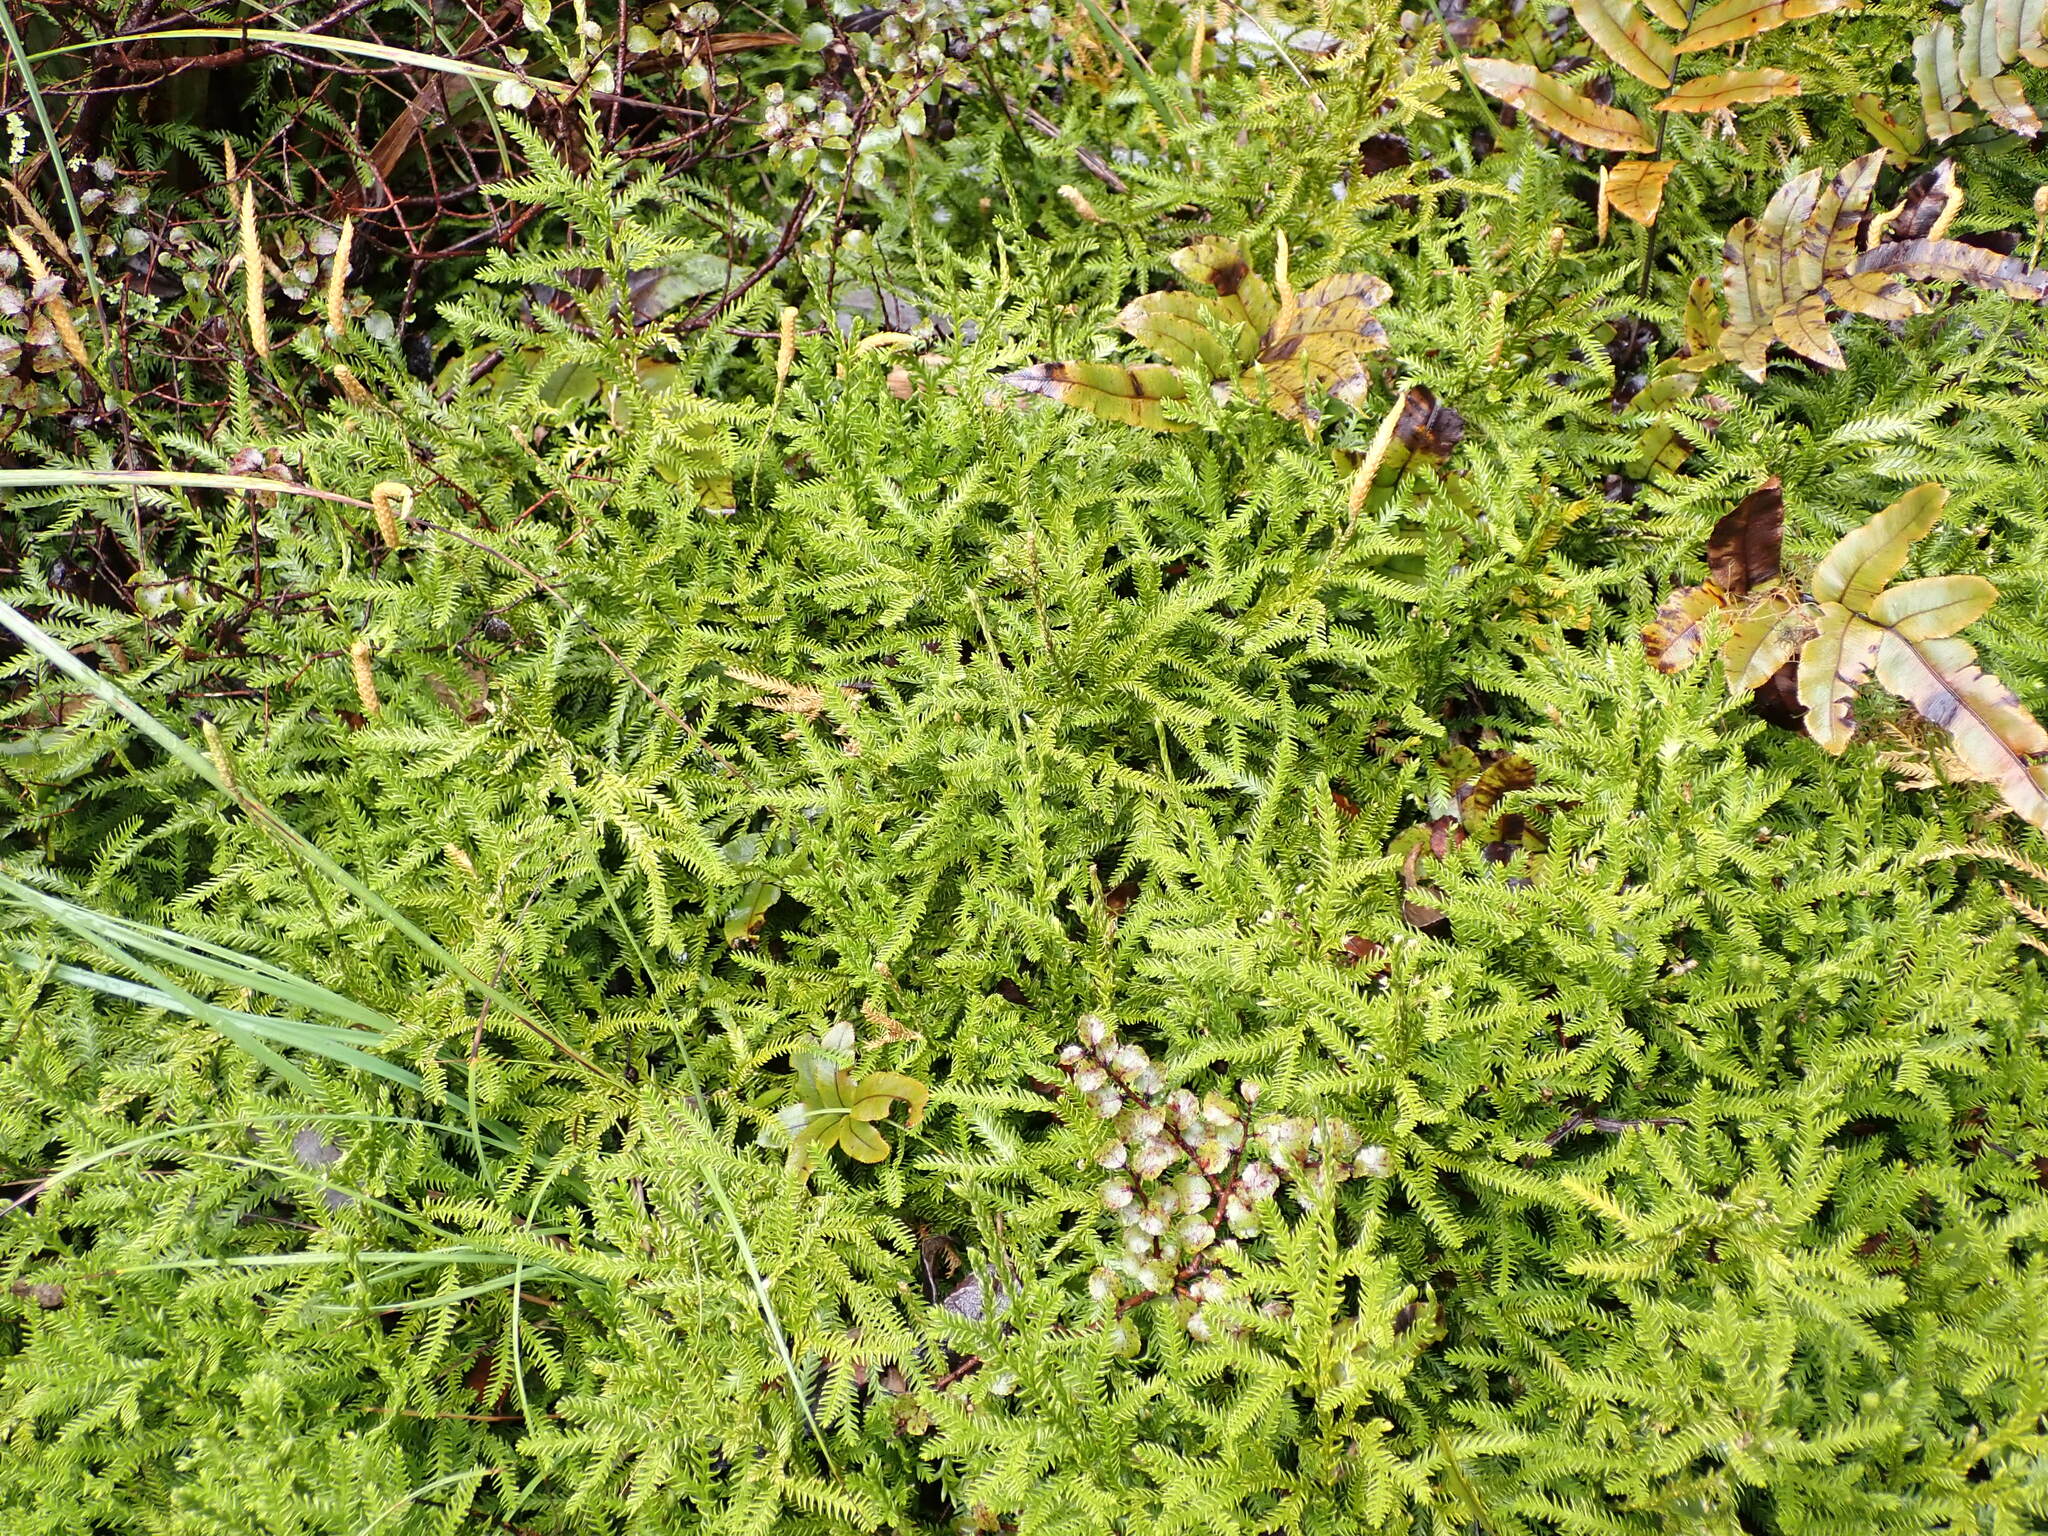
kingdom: Plantae
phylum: Tracheophyta
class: Lycopodiopsida
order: Lycopodiales
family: Lycopodiaceae
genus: Diphasium
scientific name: Diphasium scariosum
